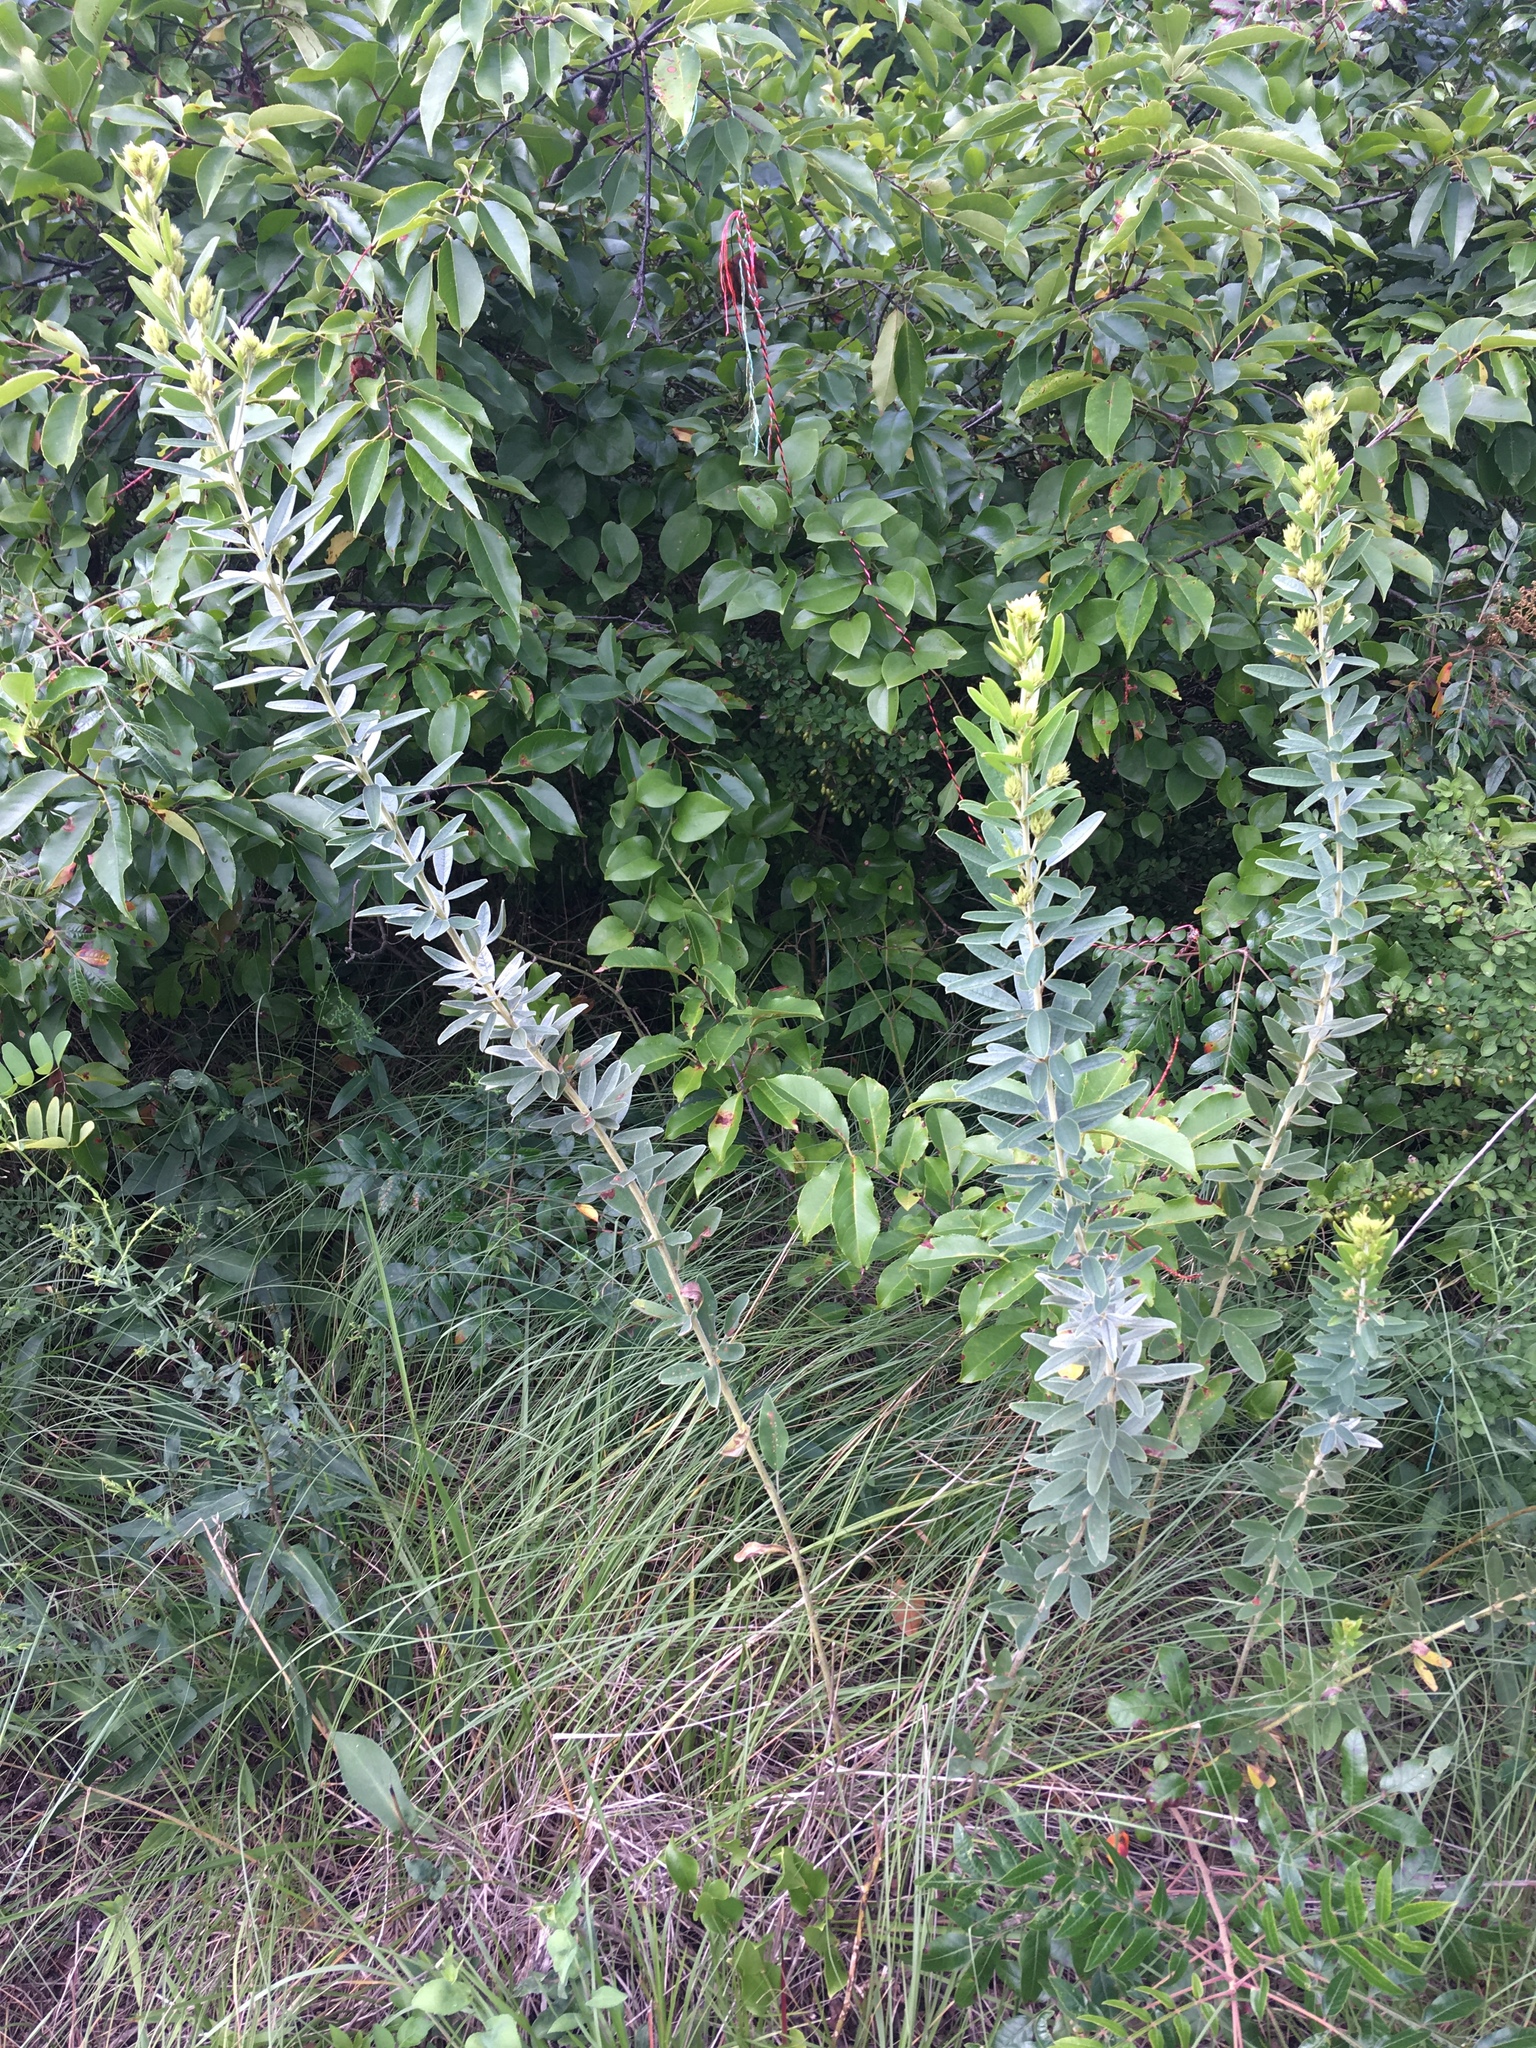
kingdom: Plantae
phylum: Tracheophyta
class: Magnoliopsida
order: Fabales
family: Fabaceae
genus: Lespedeza
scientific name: Lespedeza capitata
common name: Dusty clover
